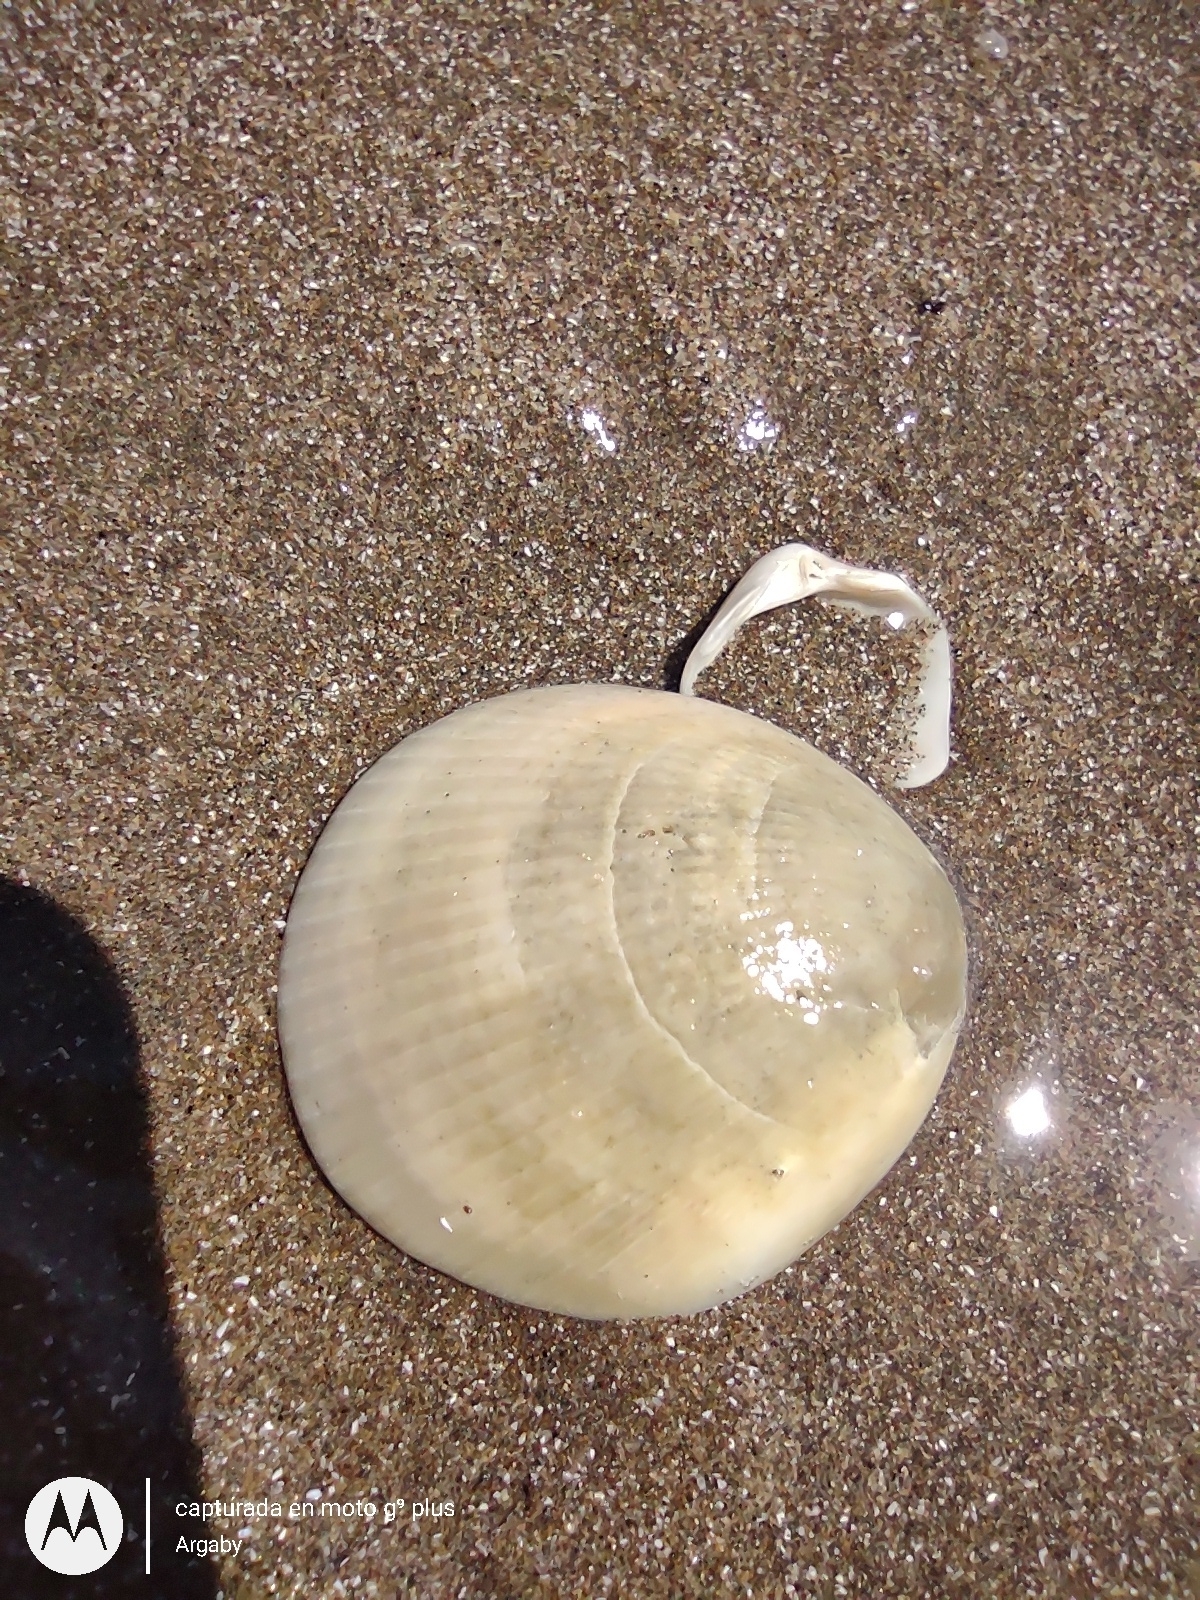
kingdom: Animalia
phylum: Mollusca
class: Bivalvia
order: Arcida
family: Glycymerididae
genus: Glycymeris
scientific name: Glycymeris longior
